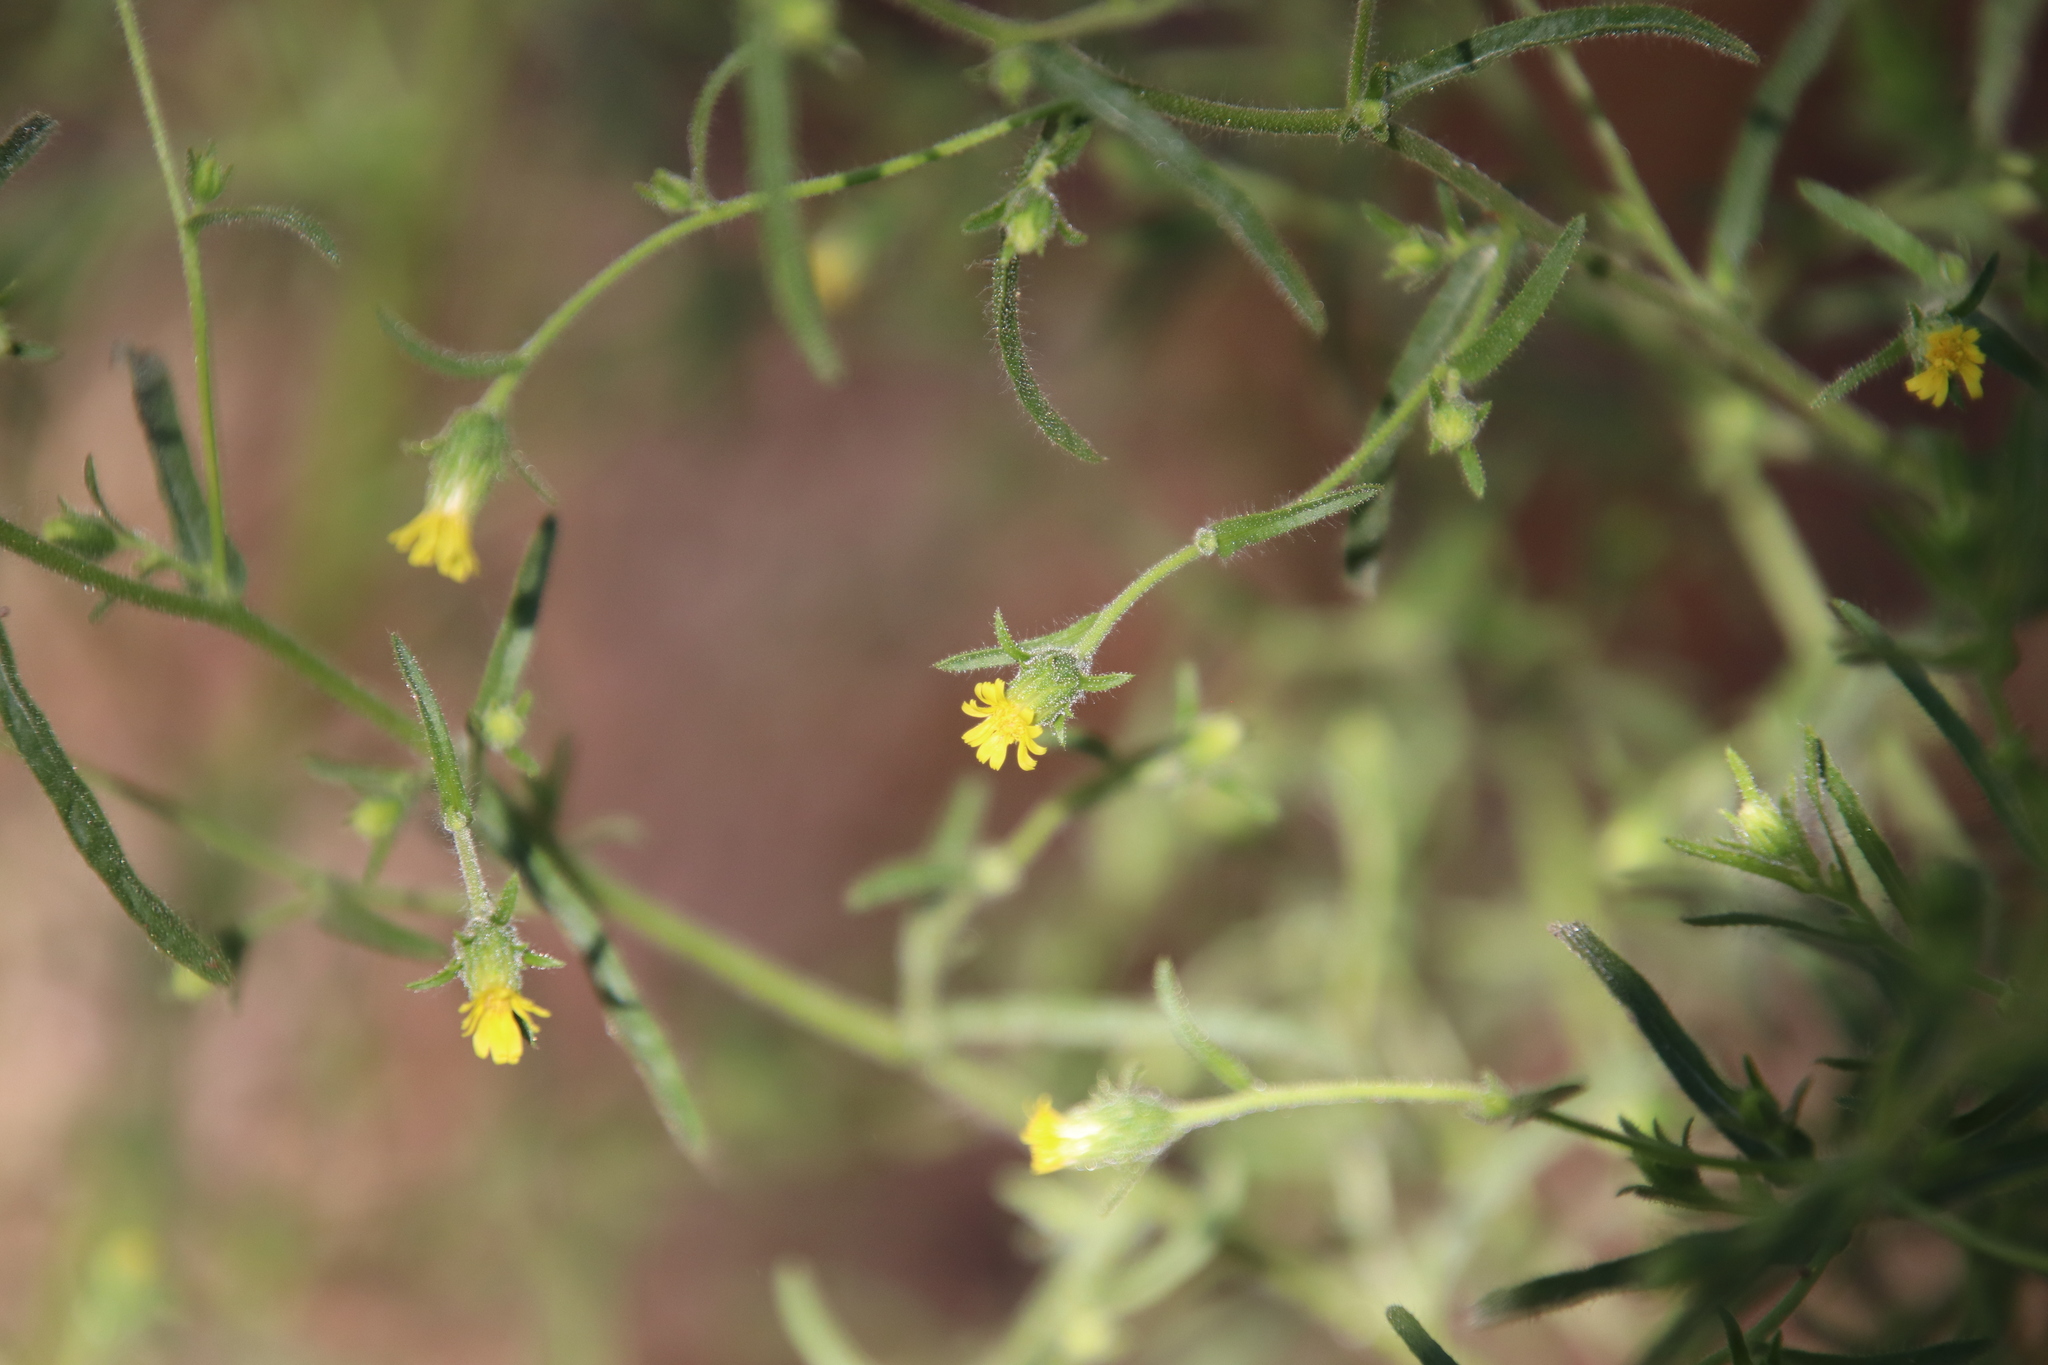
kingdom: Plantae
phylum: Tracheophyta
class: Magnoliopsida
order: Asterales
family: Asteraceae
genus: Dittrichia
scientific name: Dittrichia graveolens
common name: Stinking fleabane
